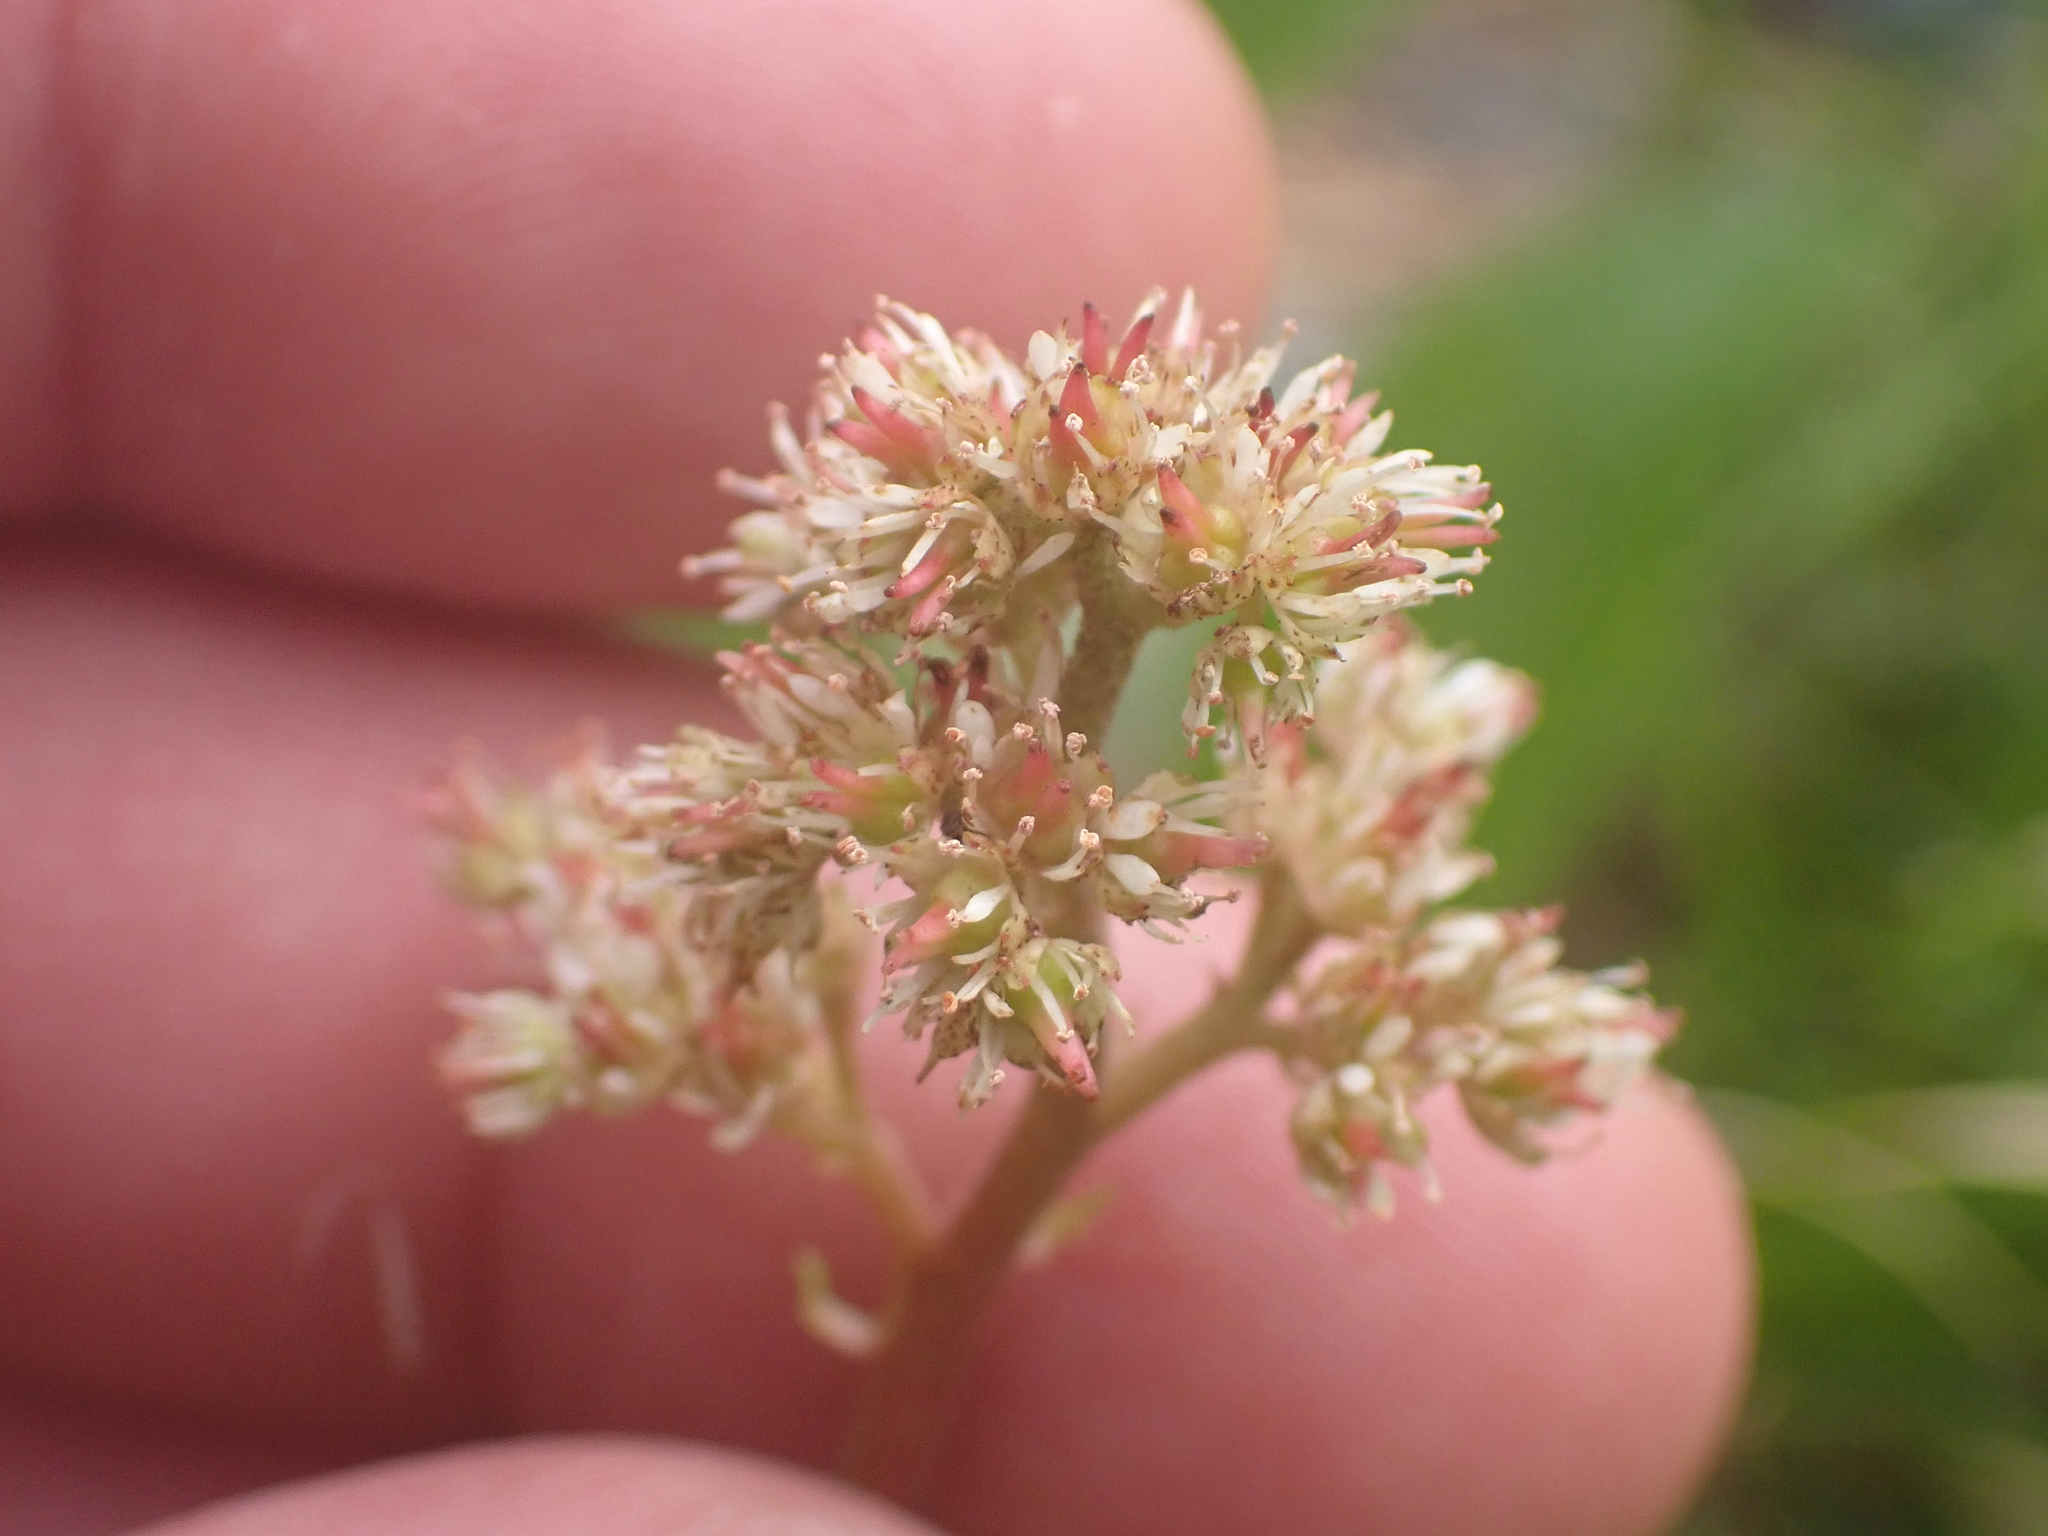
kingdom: Plantae
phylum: Tracheophyta
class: Magnoliopsida
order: Saxifragales
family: Saxifragaceae
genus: Leptarrhena
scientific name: Leptarrhena pyrolifolia
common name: Leatherleaf-saxifrage
